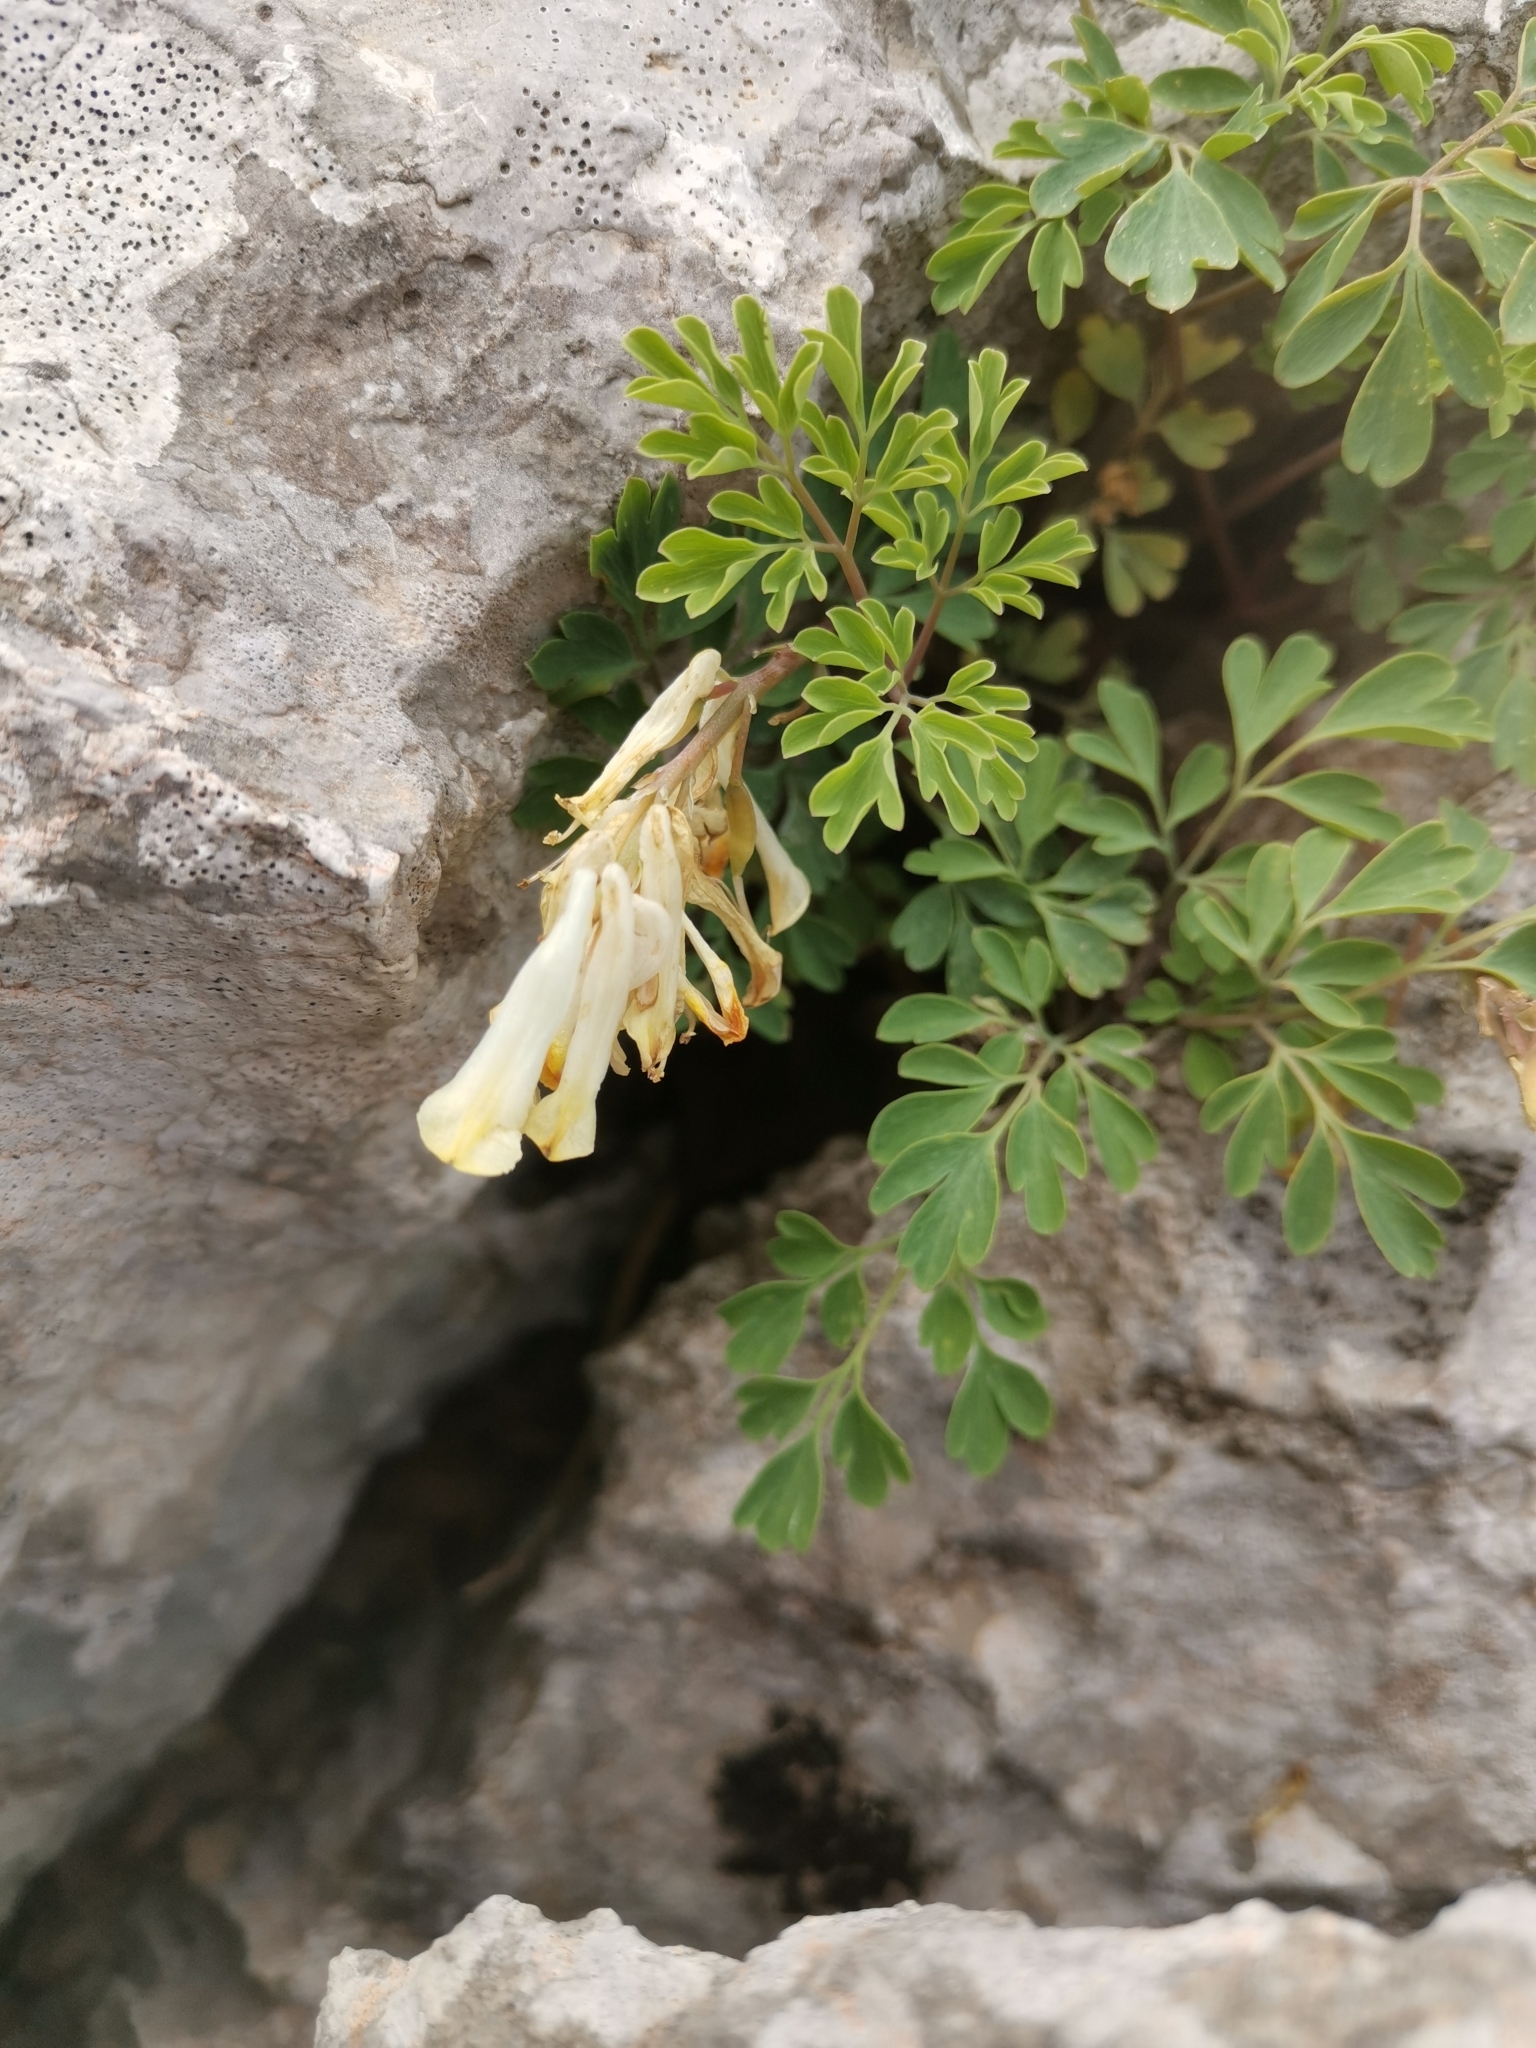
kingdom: Plantae
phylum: Tracheophyta
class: Magnoliopsida
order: Ranunculales
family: Papaveraceae
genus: Pseudofumaria
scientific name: Pseudofumaria alba
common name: Pale corydalis
